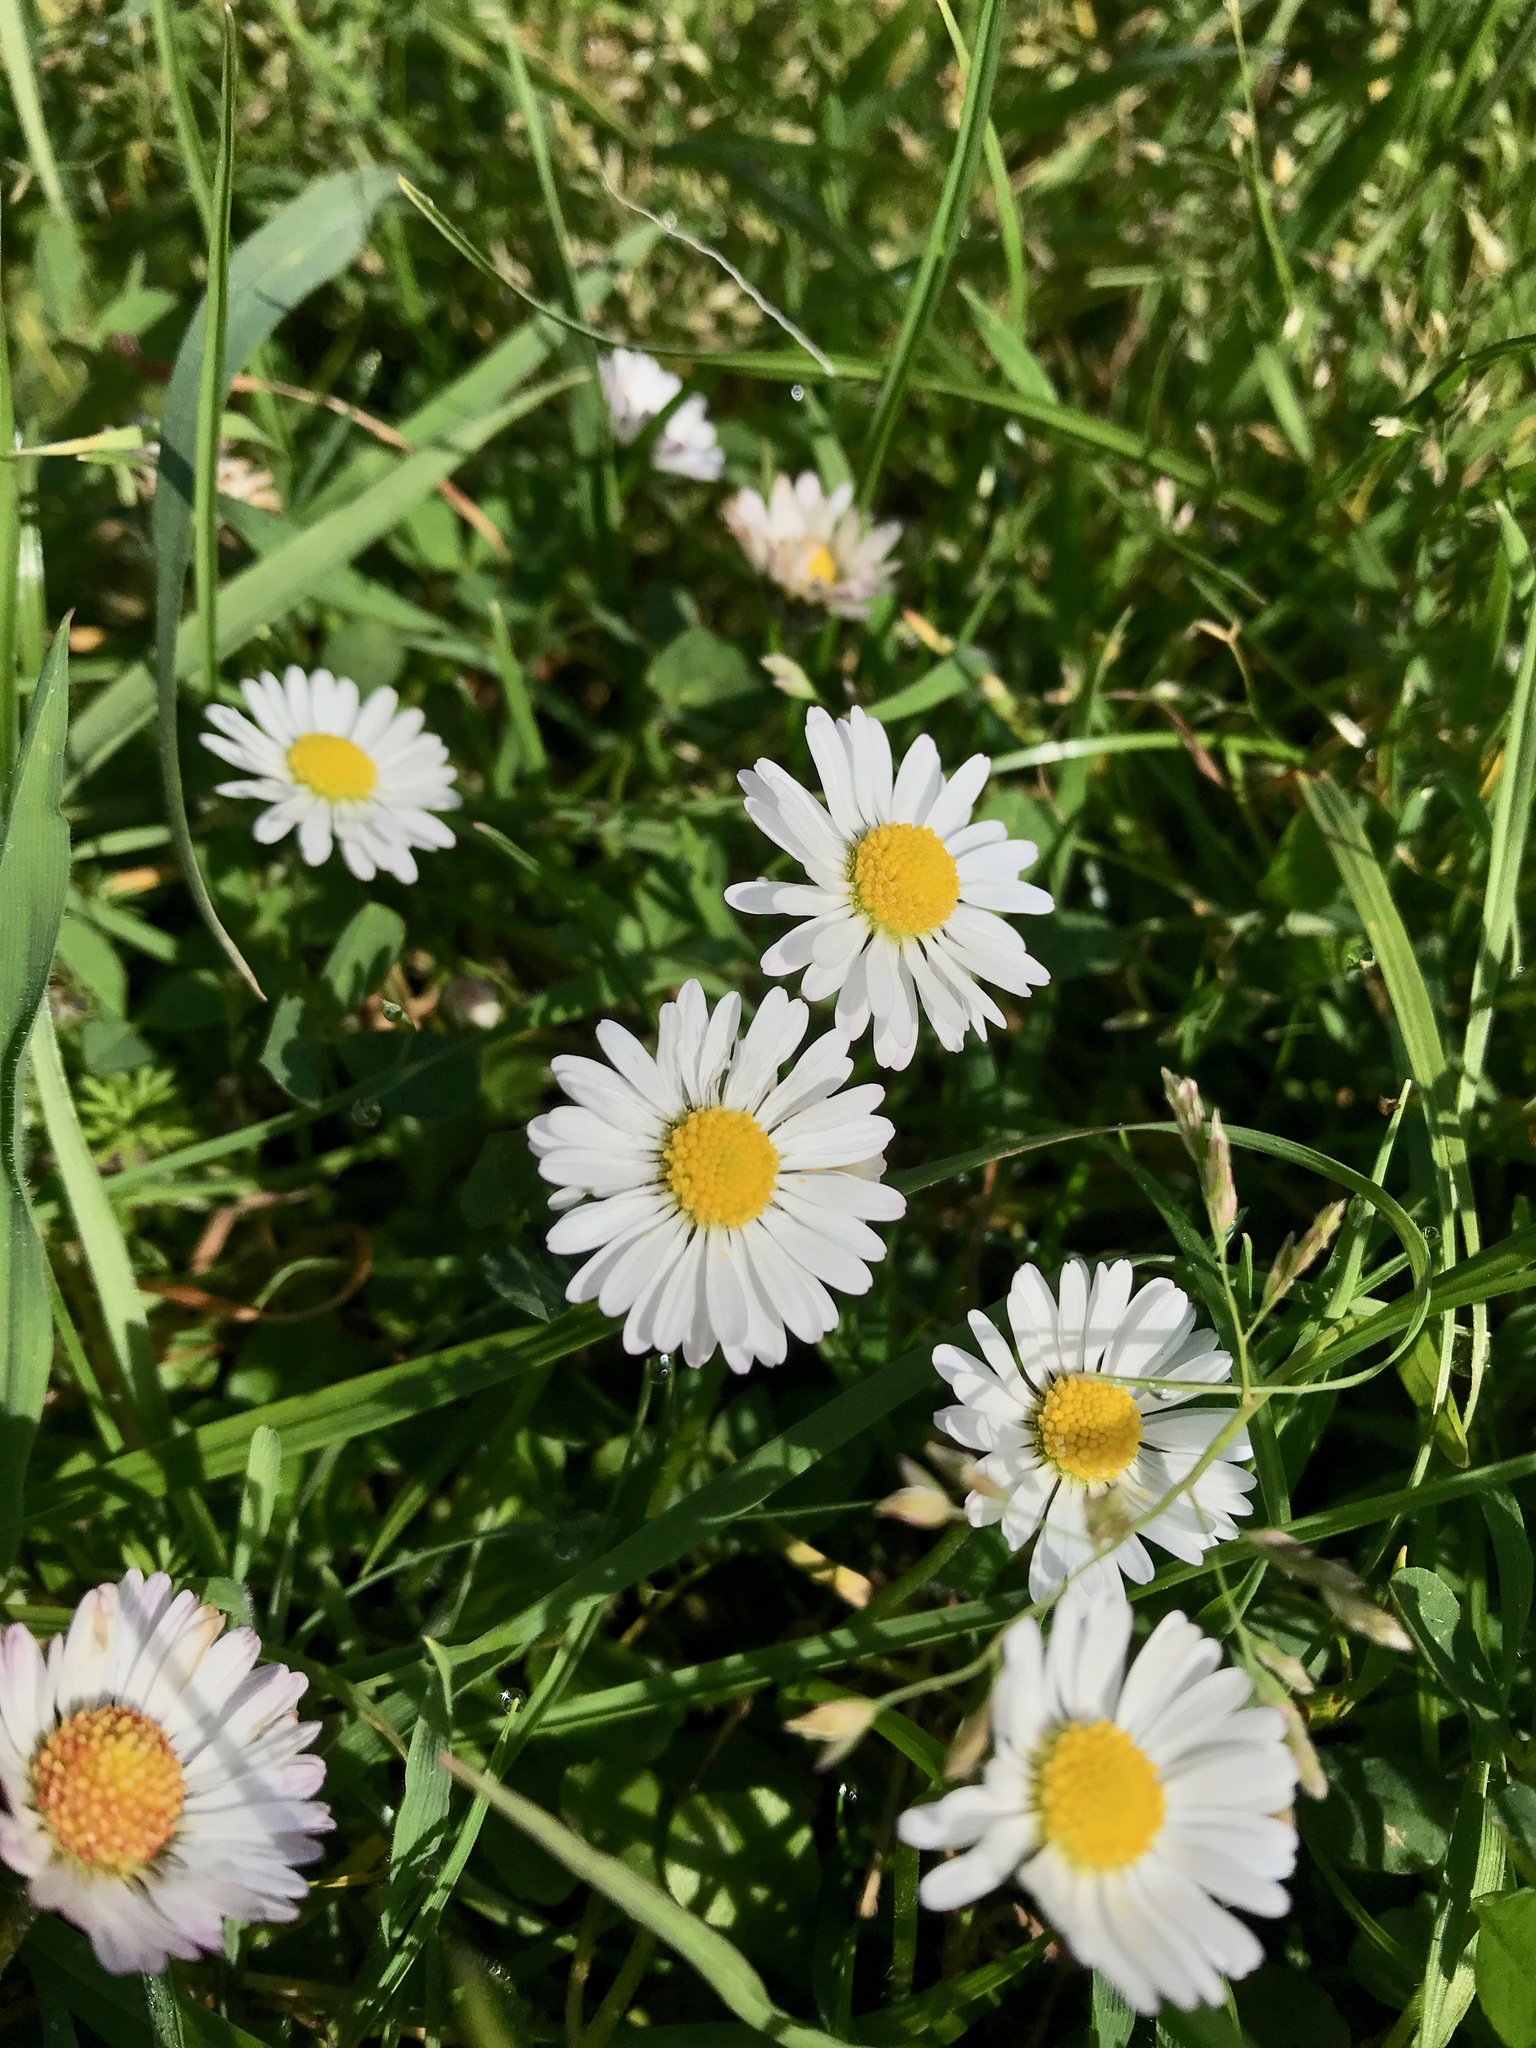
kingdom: Plantae
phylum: Tracheophyta
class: Magnoliopsida
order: Asterales
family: Asteraceae
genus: Bellis
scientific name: Bellis perennis
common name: Lawndaisy
